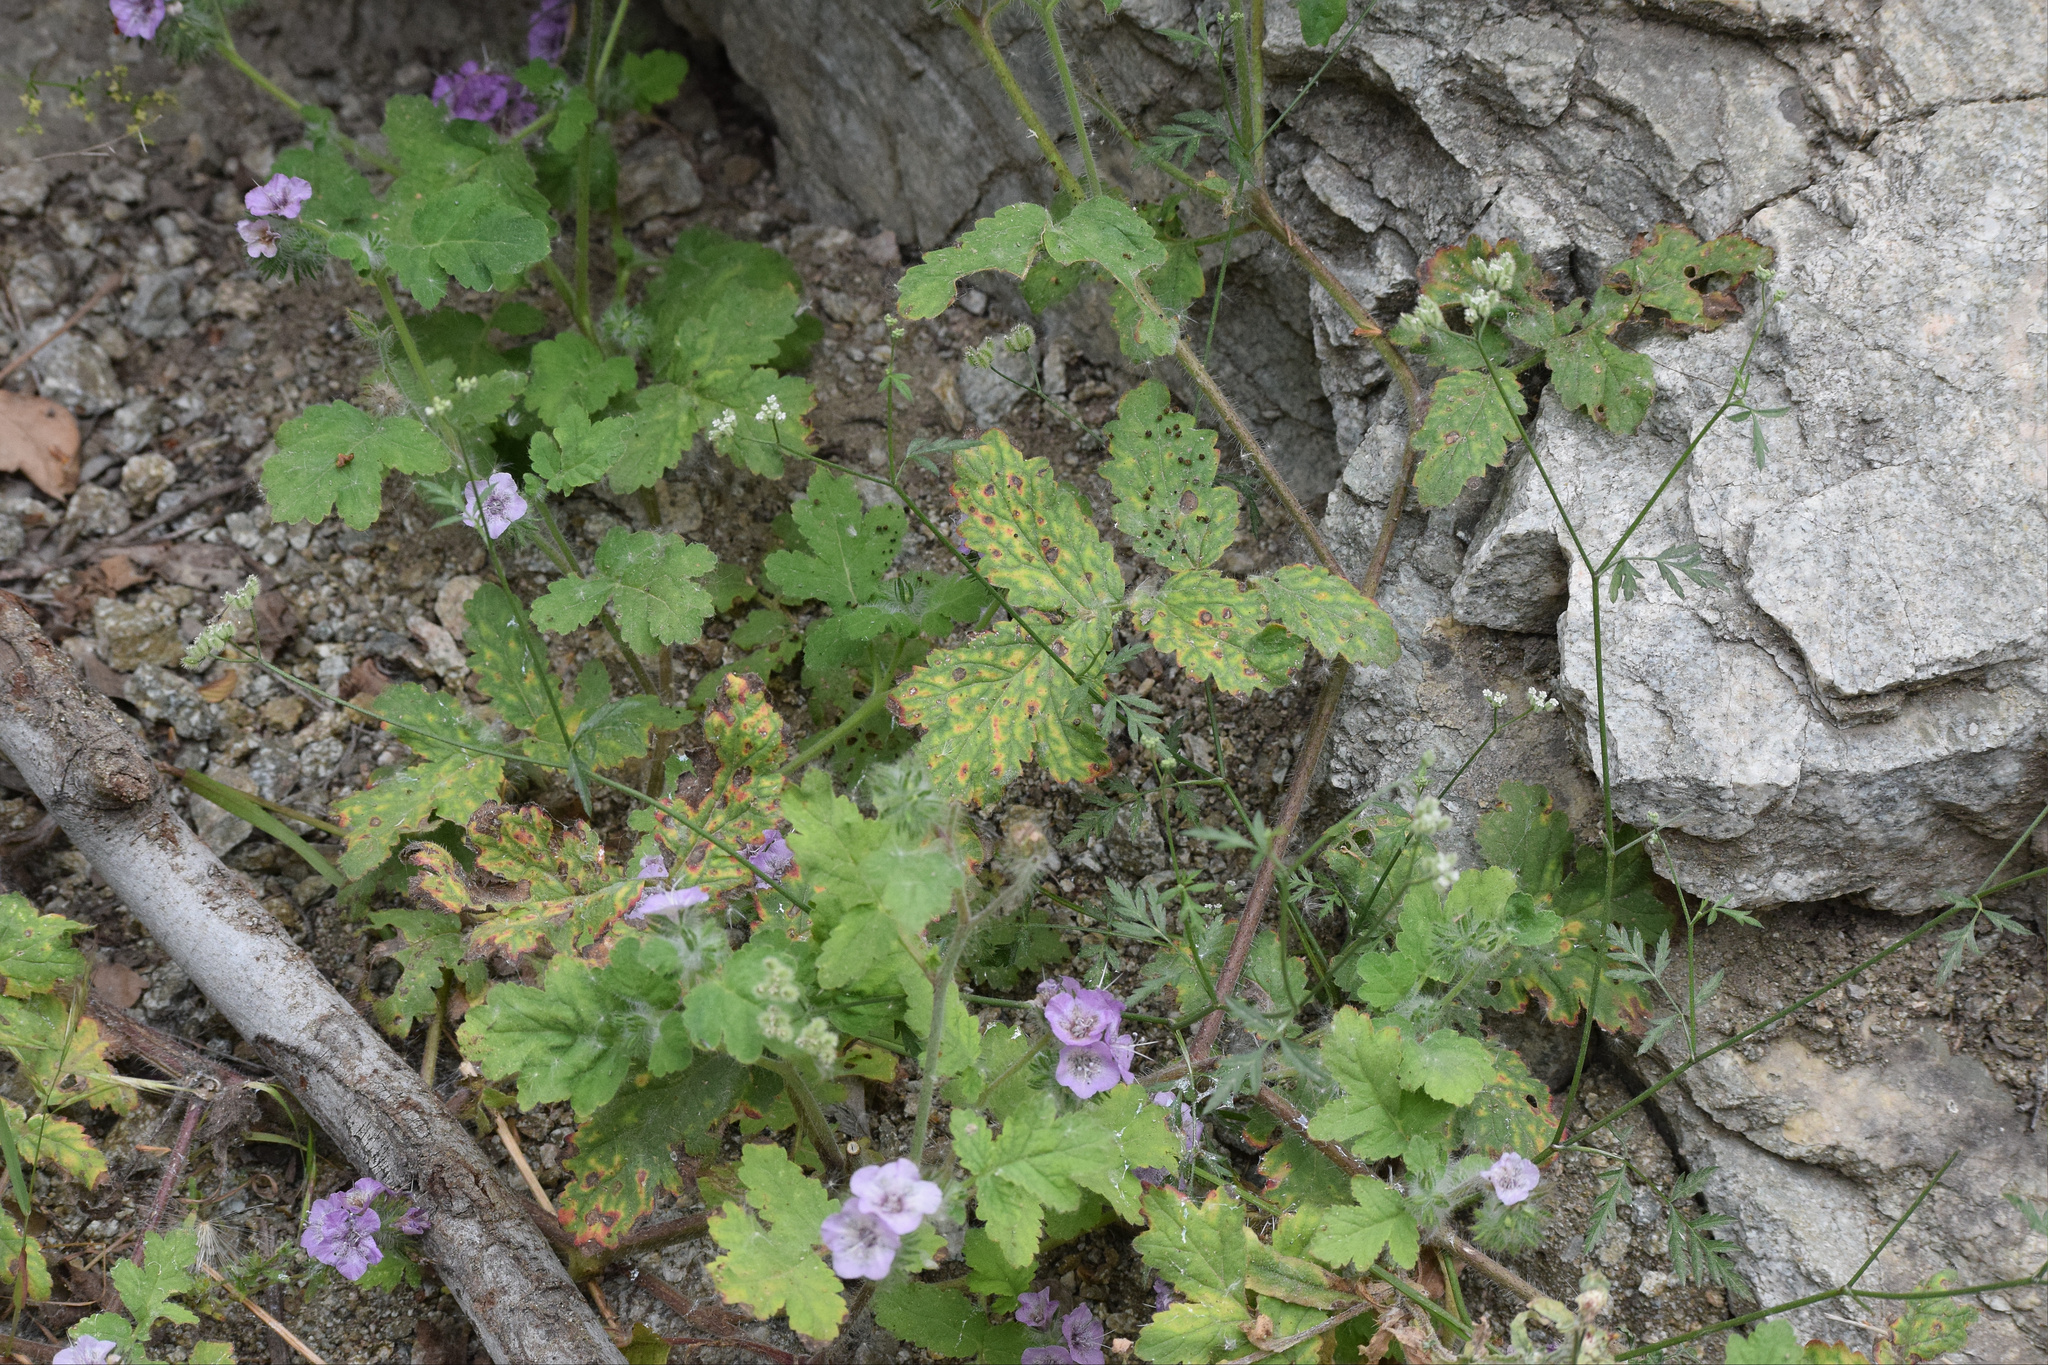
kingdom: Plantae
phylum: Tracheophyta
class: Magnoliopsida
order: Boraginales
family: Hydrophyllaceae
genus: Phacelia
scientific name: Phacelia cicutaria
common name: Caterpillar phacelia
